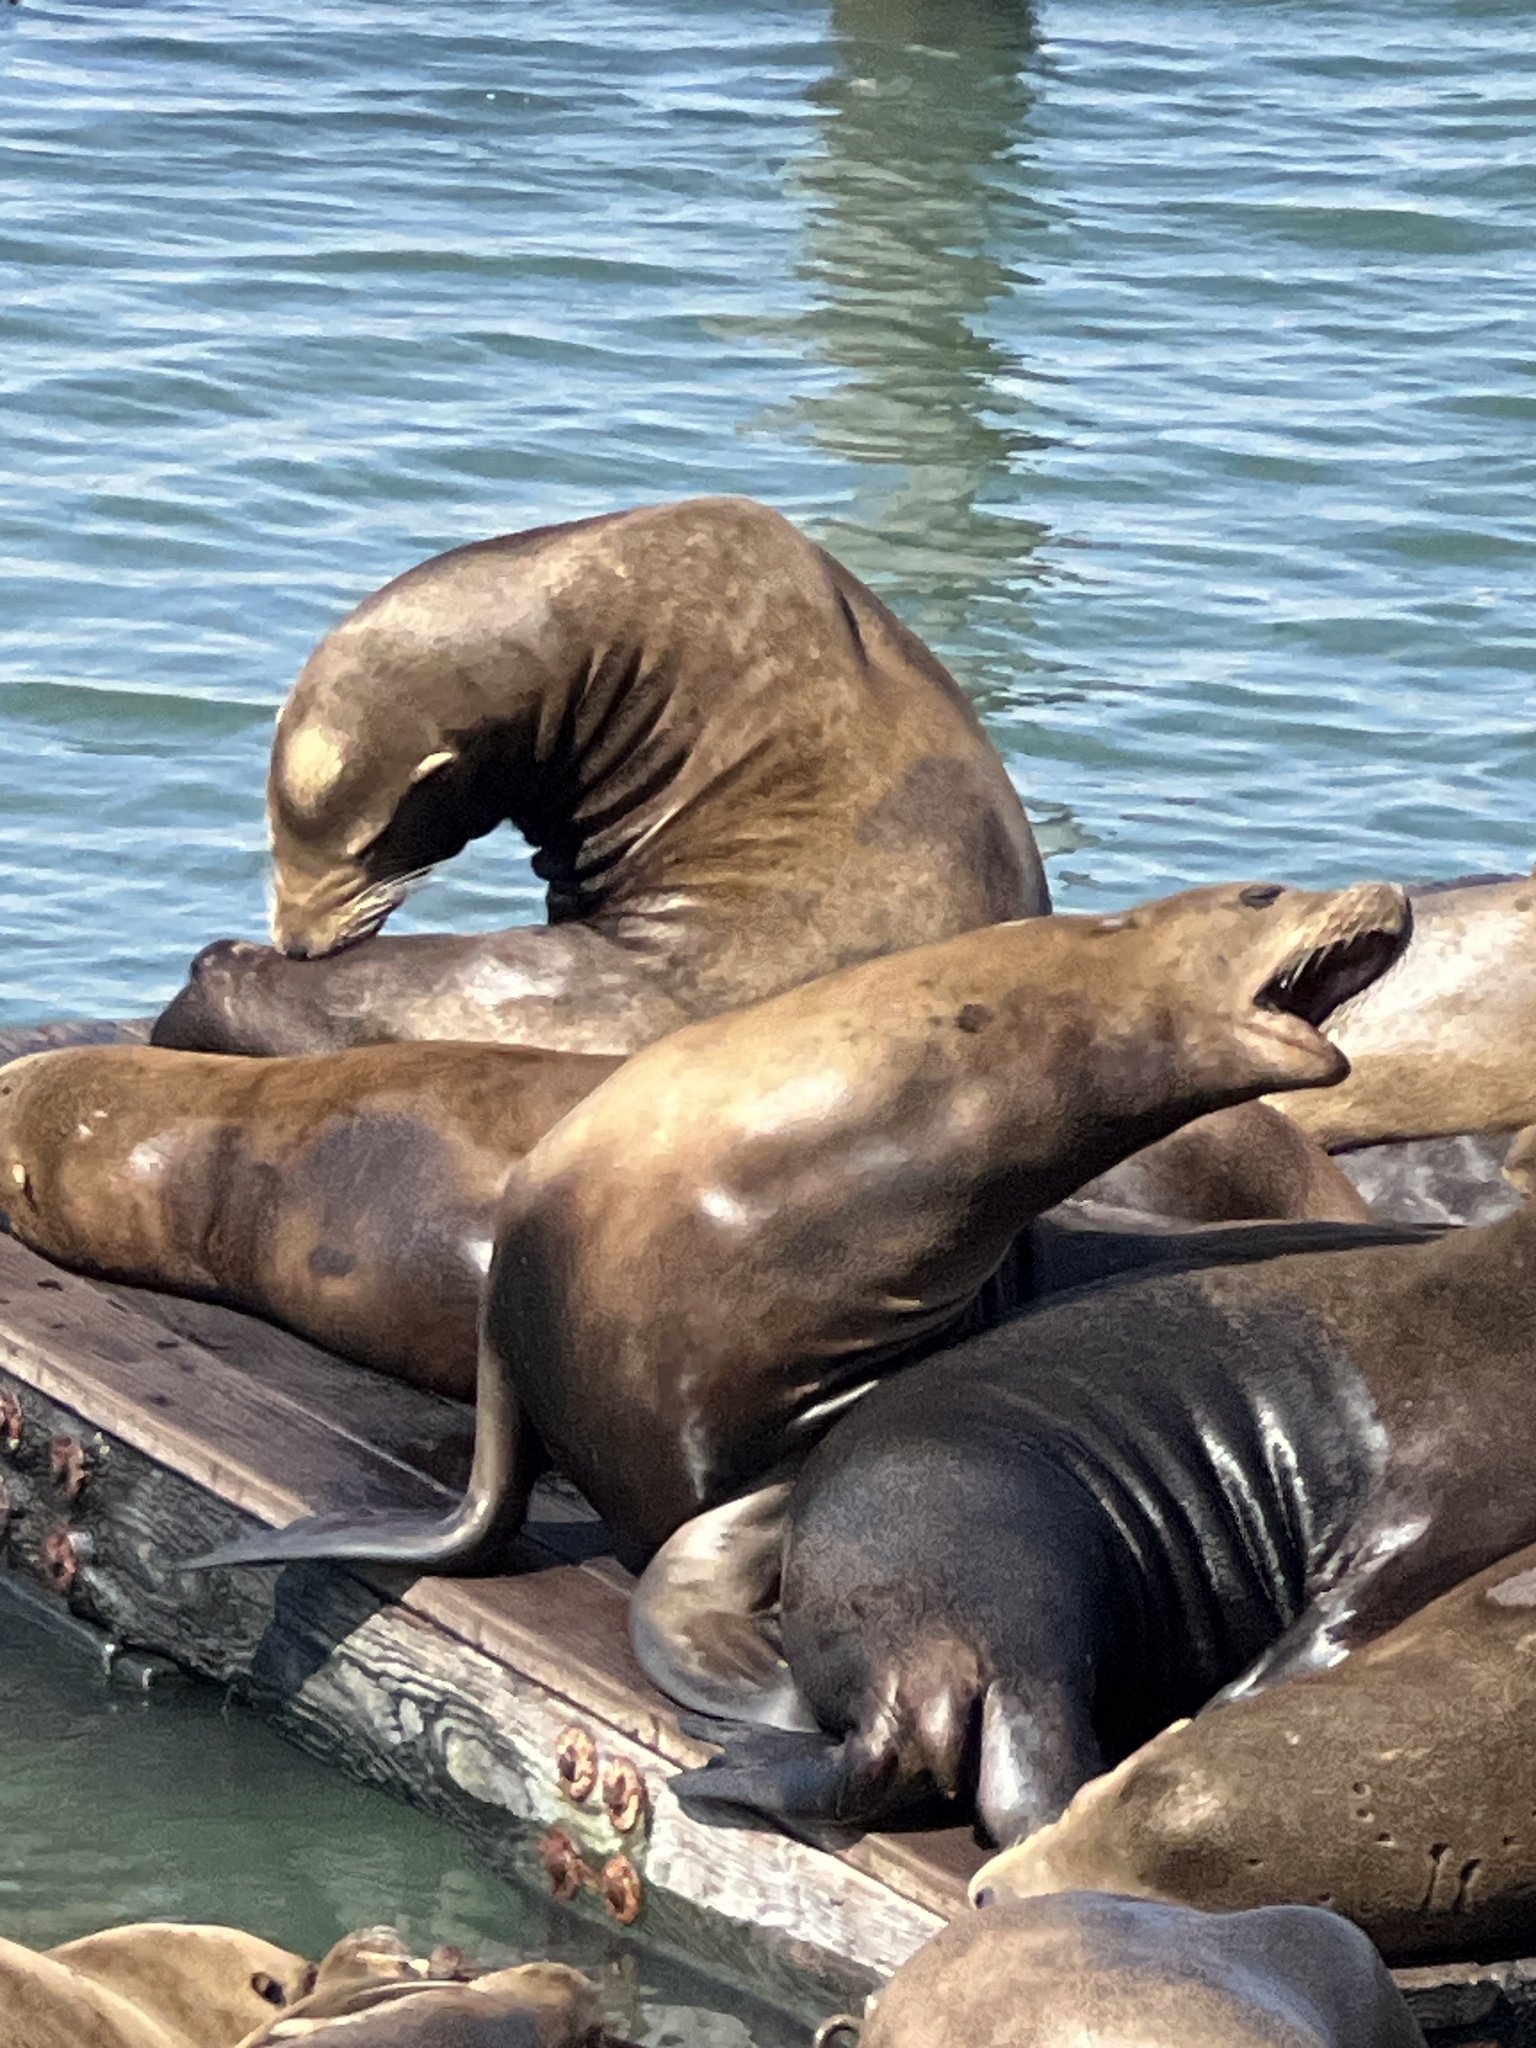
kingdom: Animalia
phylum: Chordata
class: Mammalia
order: Carnivora
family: Otariidae
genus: Zalophus
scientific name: Zalophus californianus
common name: California sea lion
